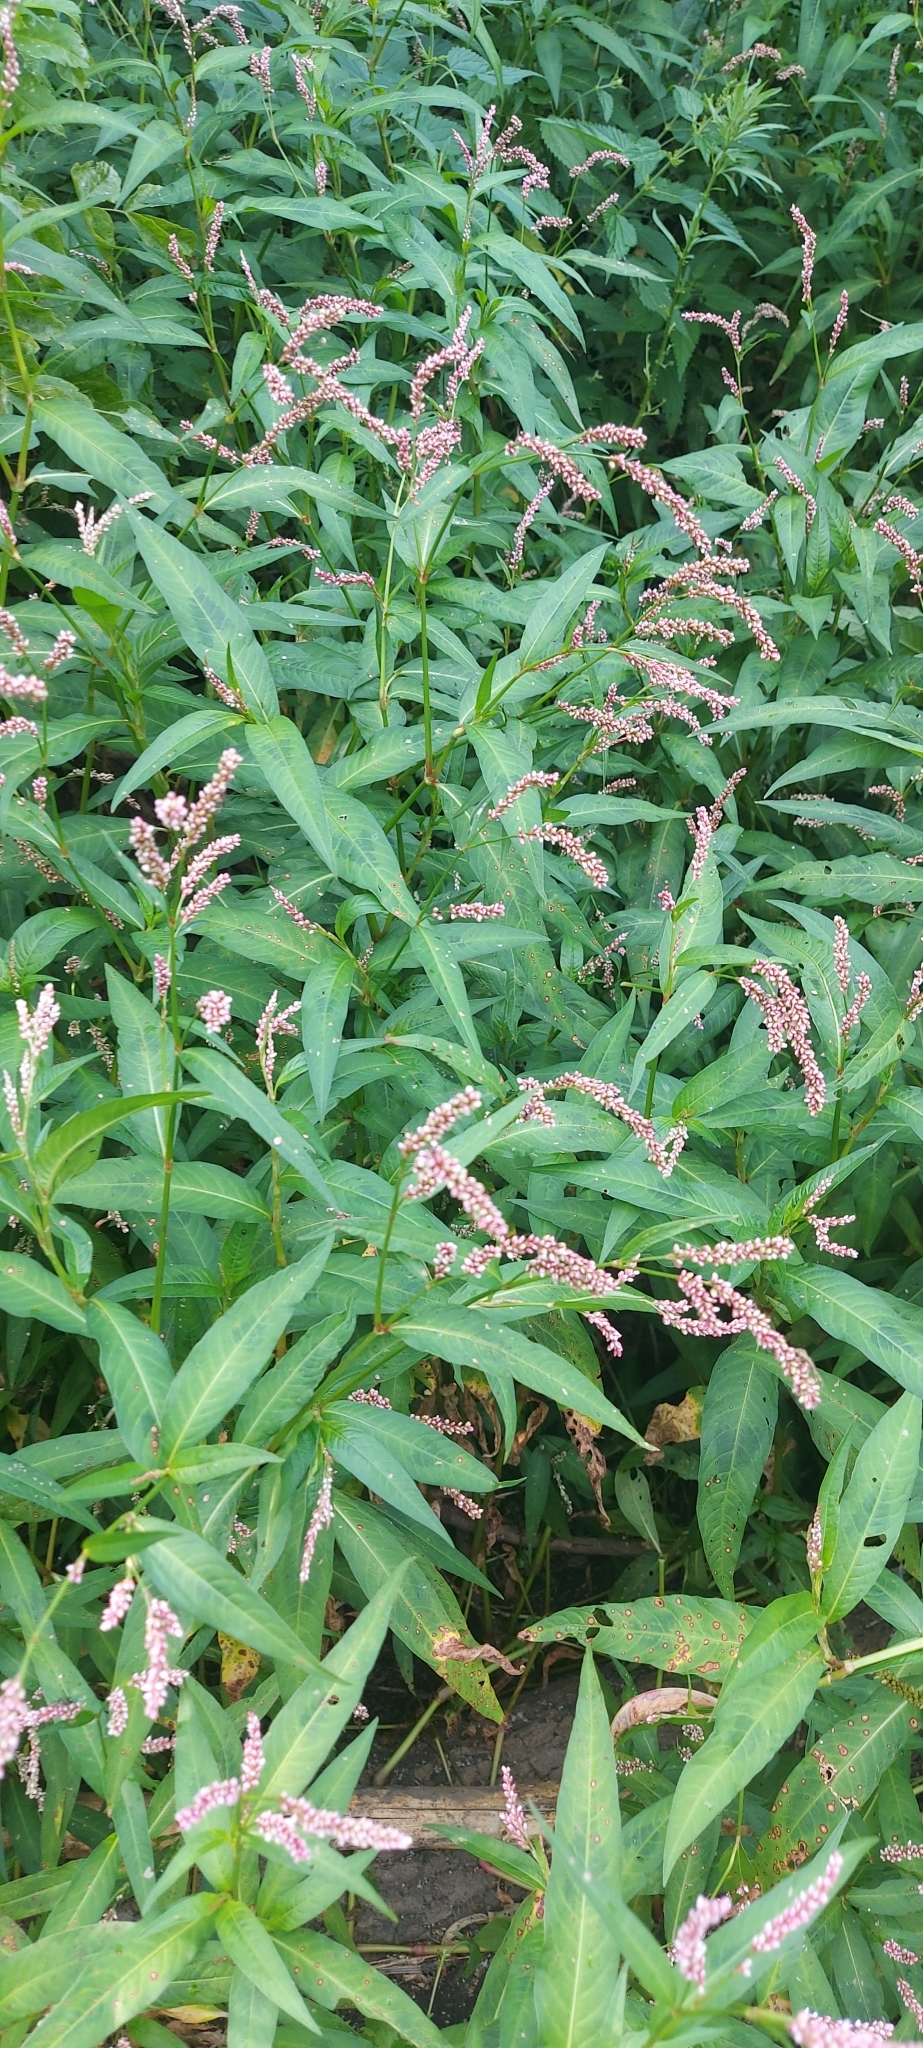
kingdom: Plantae
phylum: Tracheophyta
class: Magnoliopsida
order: Caryophyllales
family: Polygonaceae
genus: Persicaria
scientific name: Persicaria lapathifolia
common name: Curlytop knotweed
